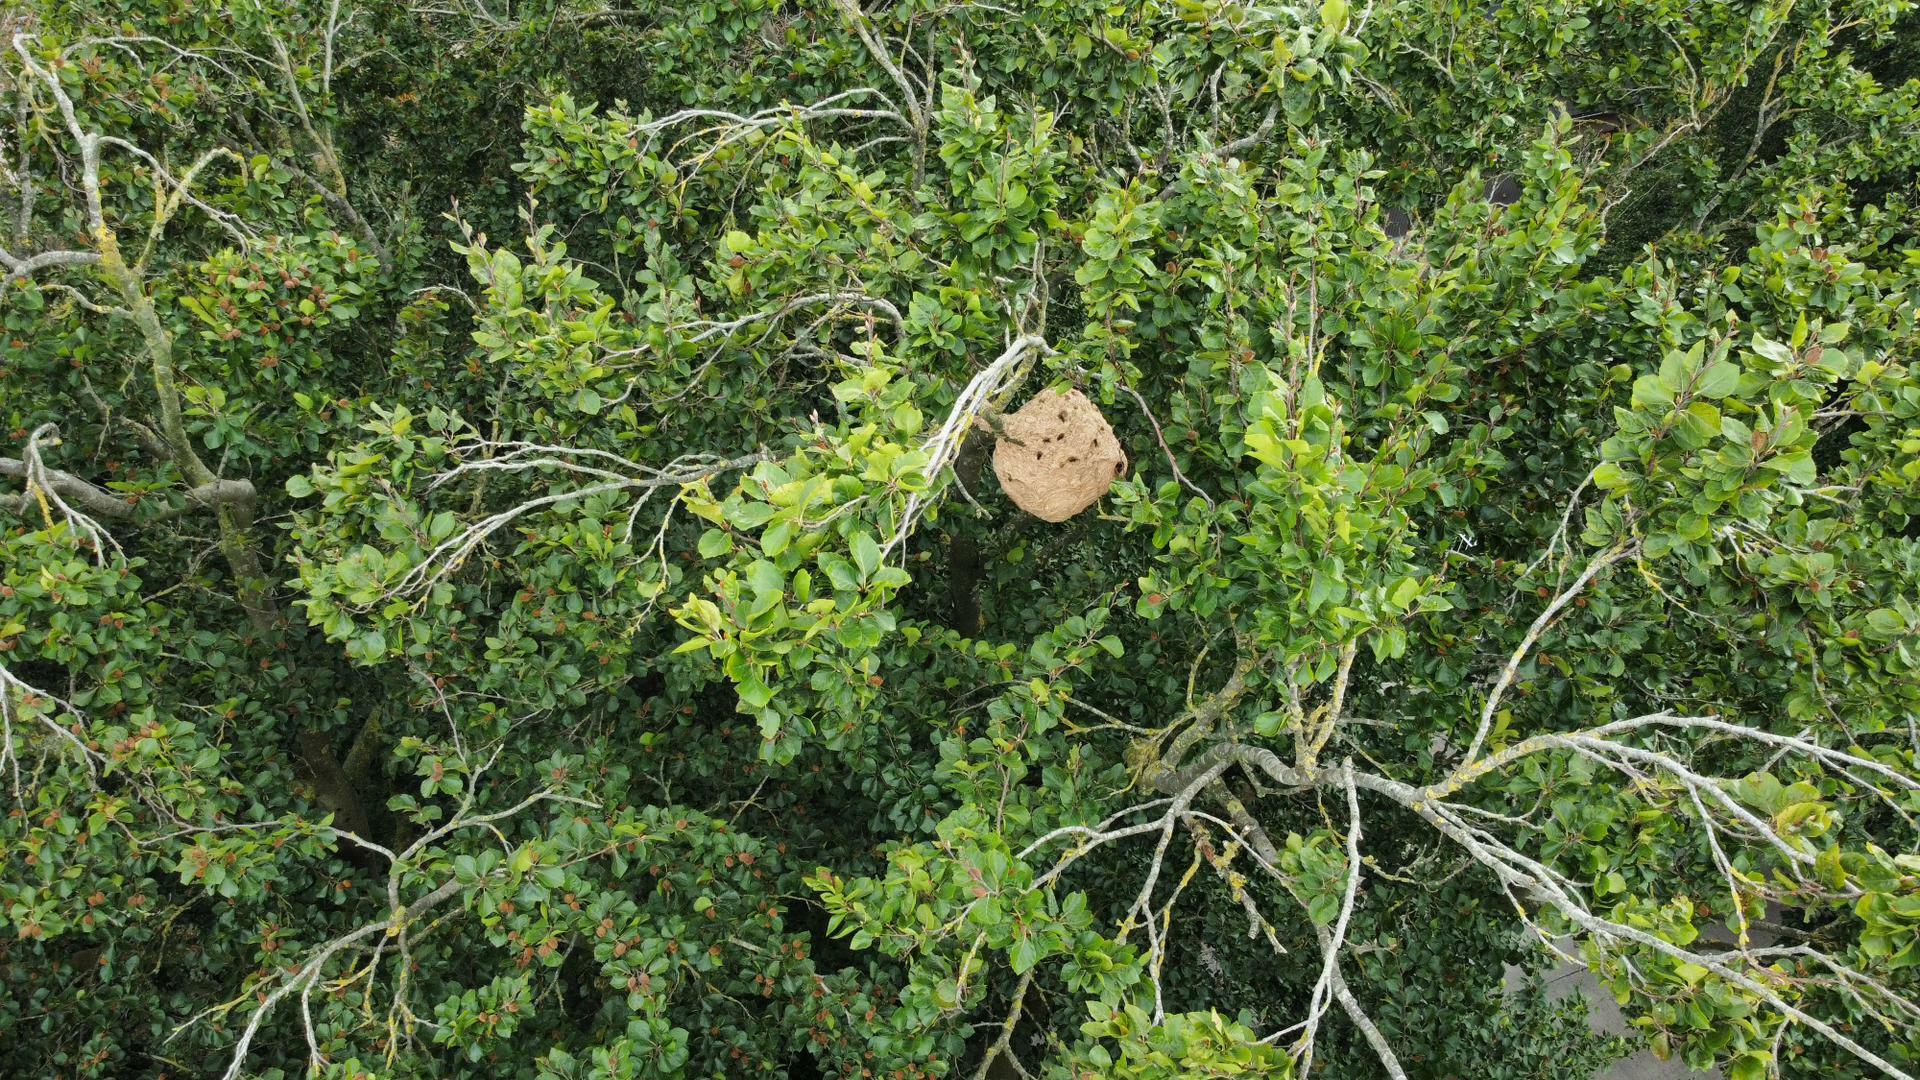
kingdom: Animalia
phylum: Arthropoda
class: Insecta
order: Hymenoptera
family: Vespidae
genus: Vespa
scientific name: Vespa velutina
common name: Asian hornet
